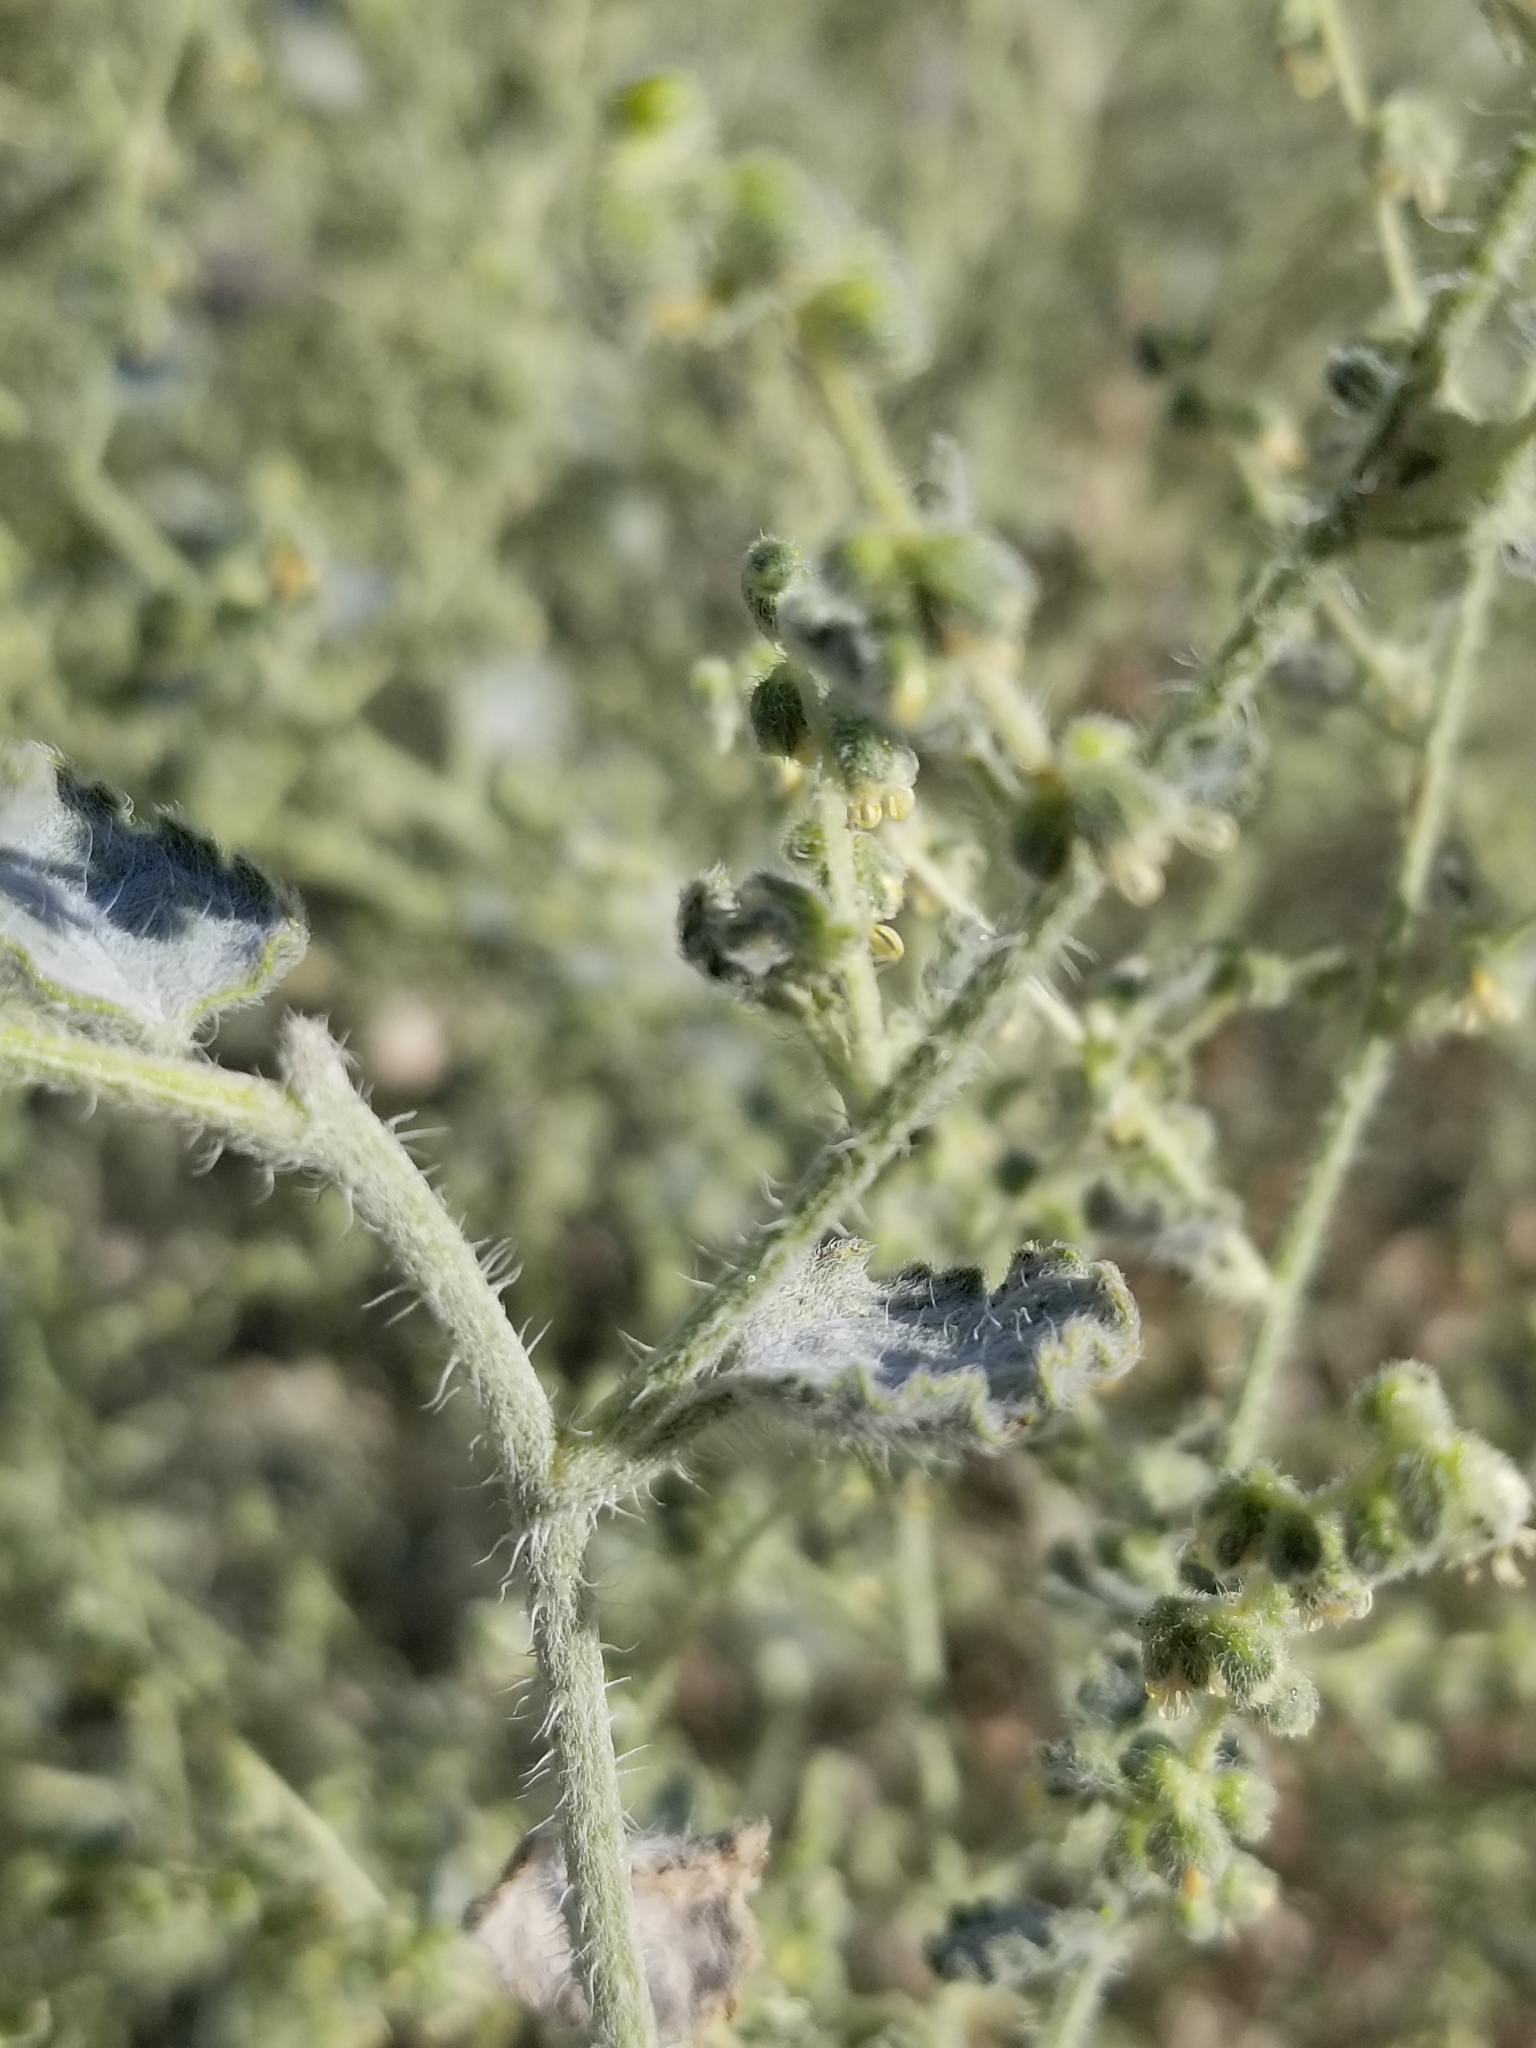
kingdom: Plantae
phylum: Tracheophyta
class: Magnoliopsida
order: Asterales
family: Asteraceae
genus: Dicoria
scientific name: Dicoria canescens
